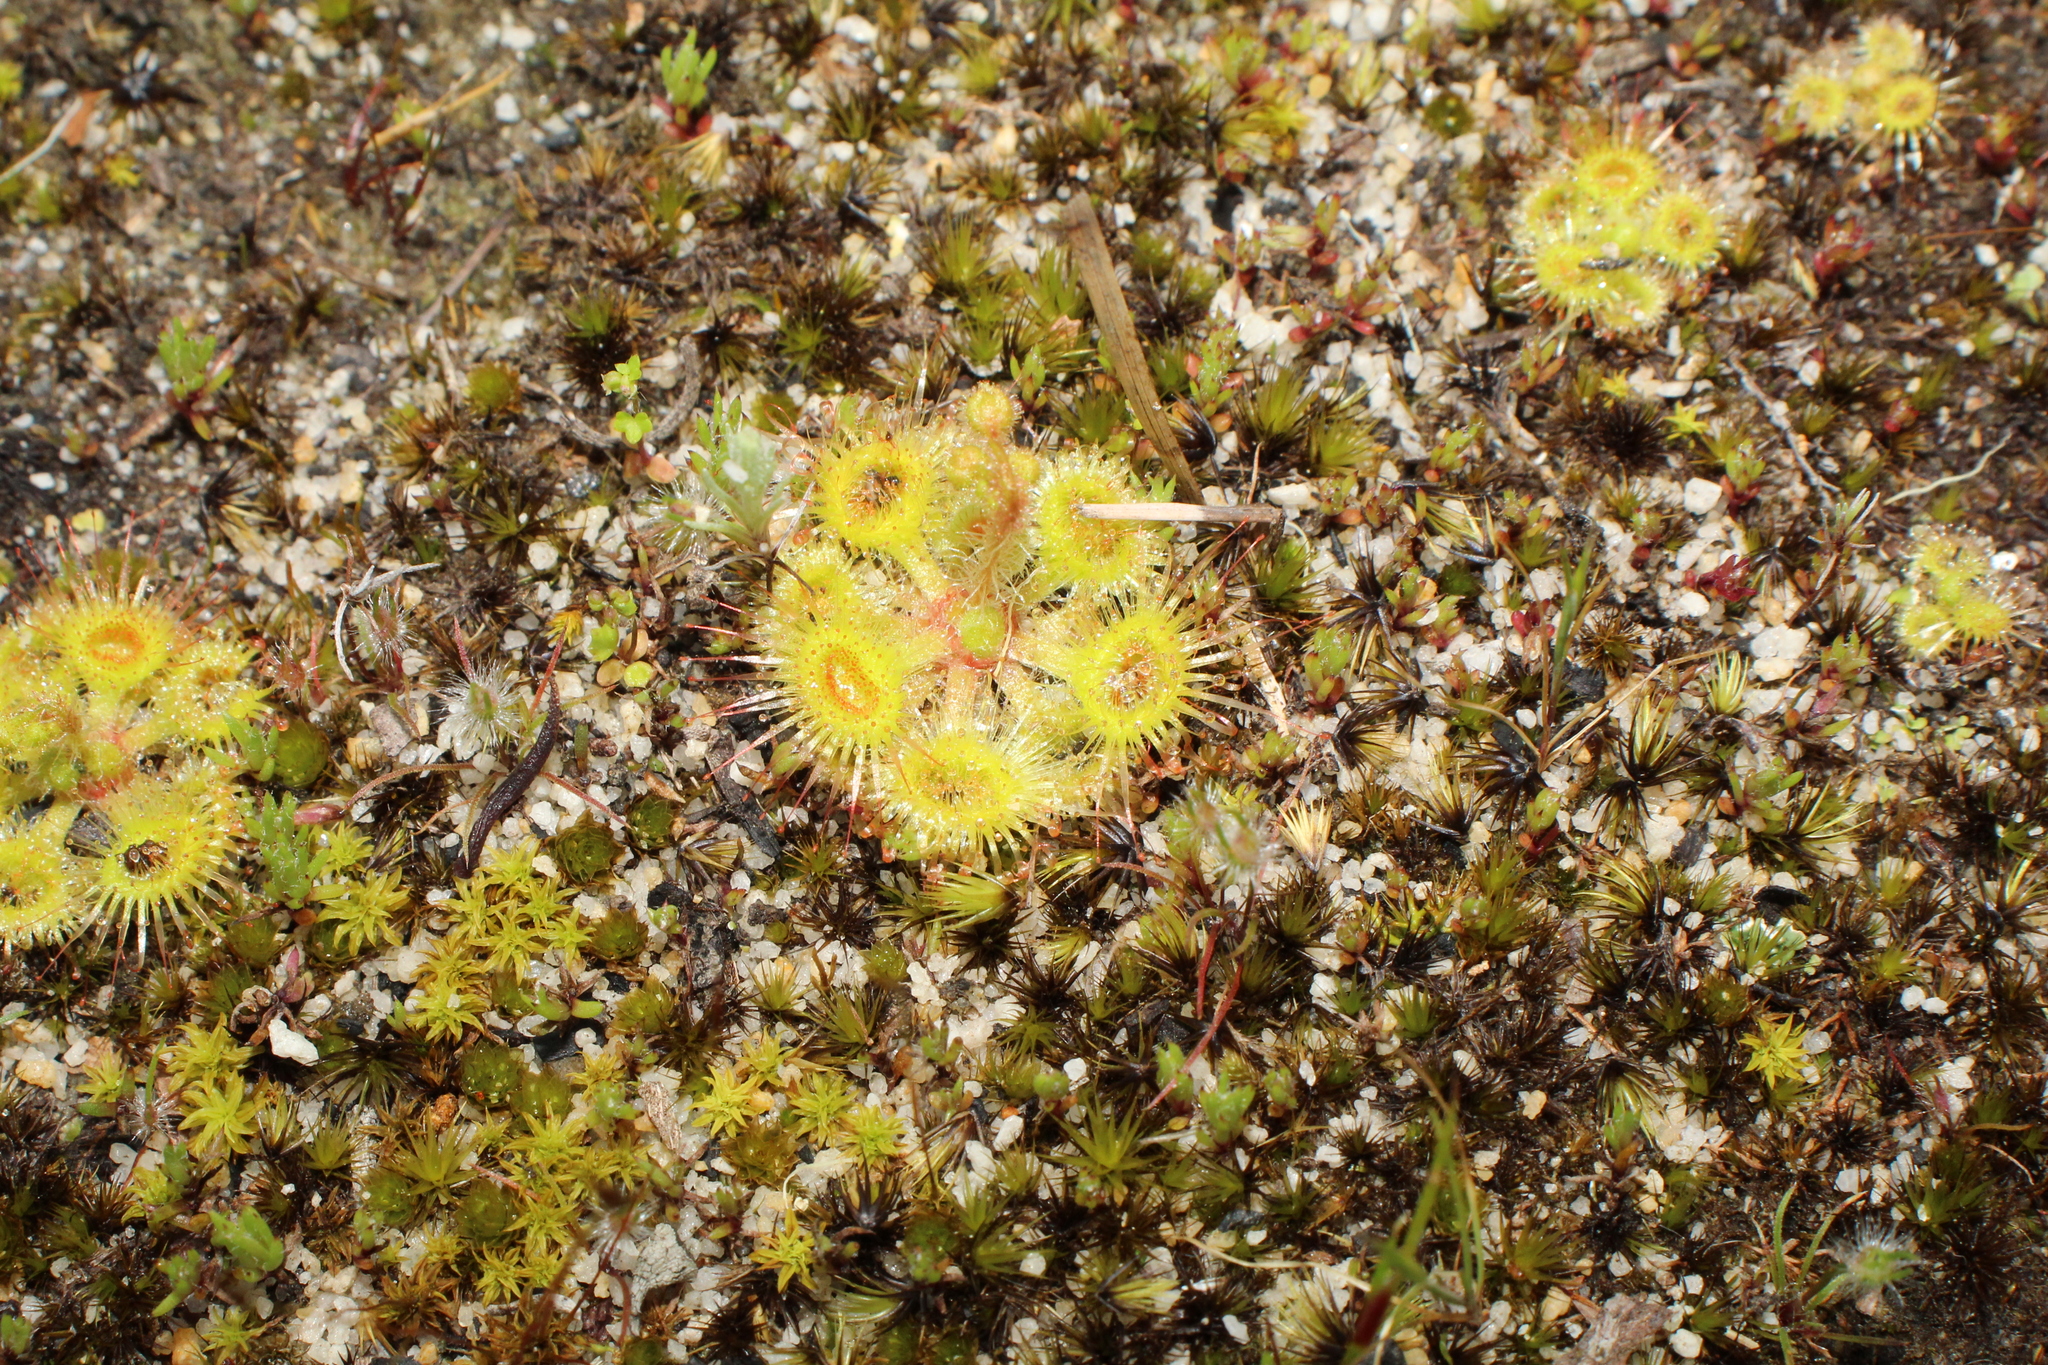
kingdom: Plantae
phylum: Tracheophyta
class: Magnoliopsida
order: Caryophyllales
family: Droseraceae
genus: Drosera
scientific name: Drosera glanduligera
